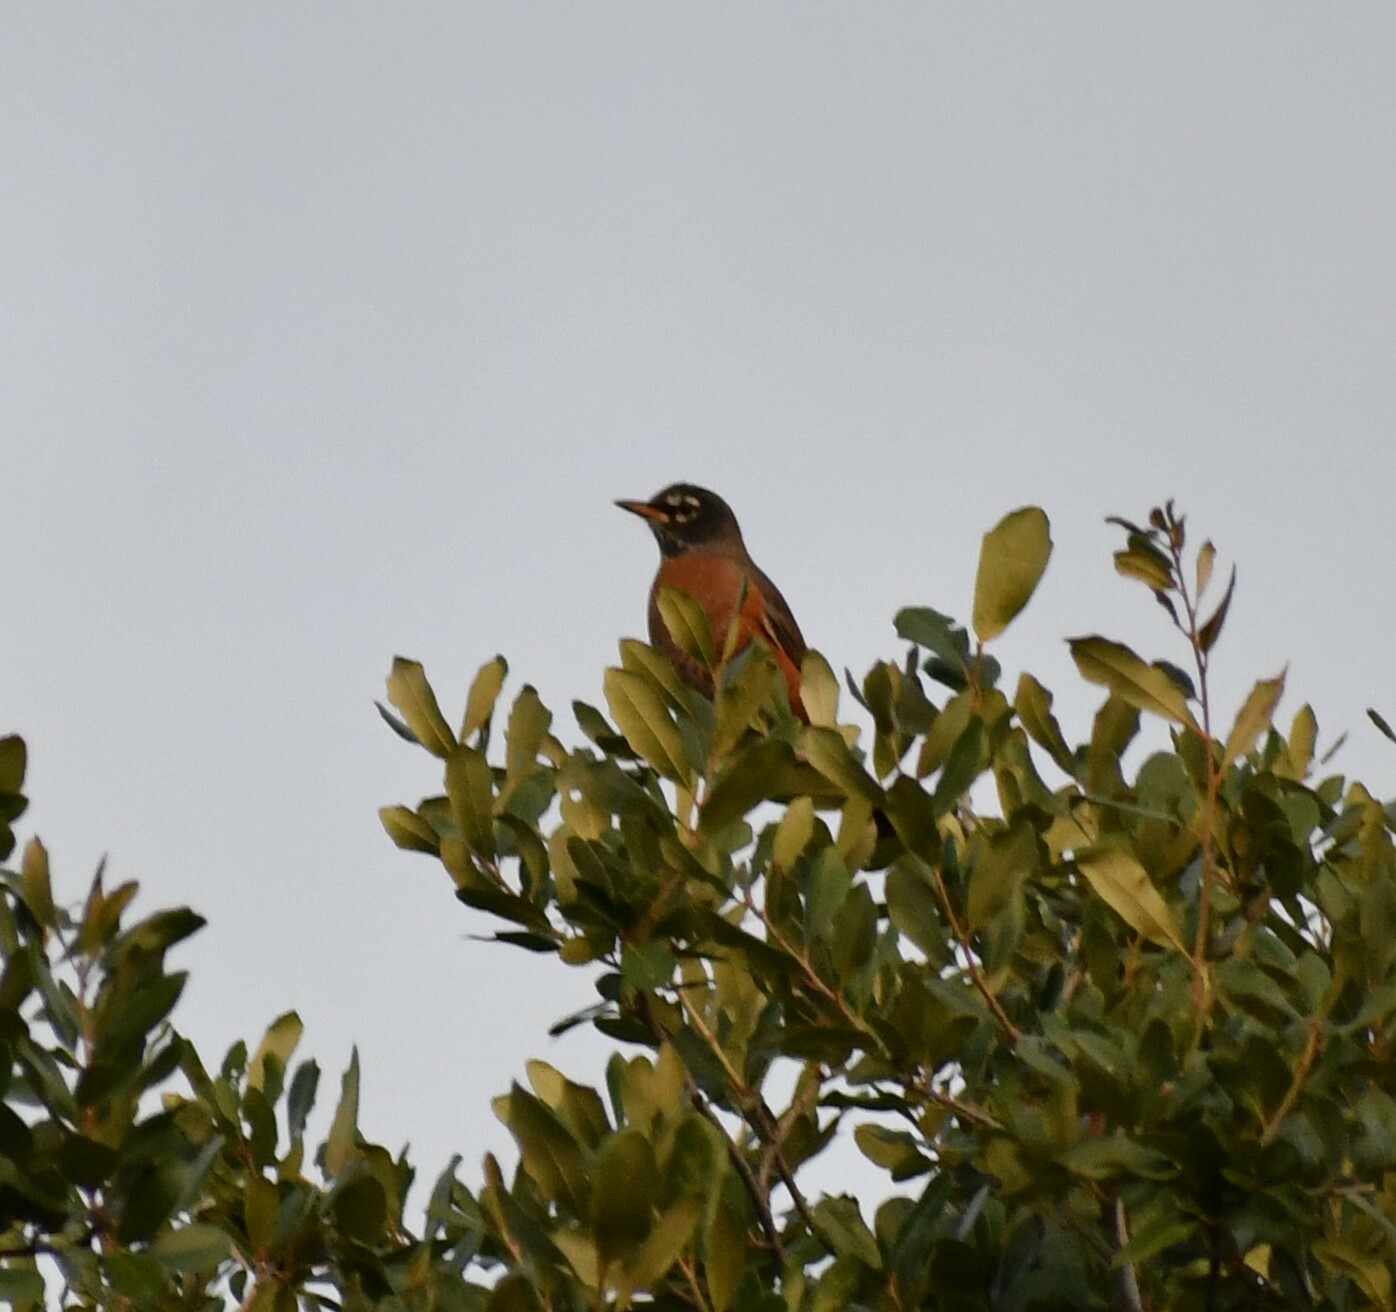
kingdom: Animalia
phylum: Chordata
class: Aves
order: Passeriformes
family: Turdidae
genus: Turdus
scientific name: Turdus migratorius
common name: American robin
